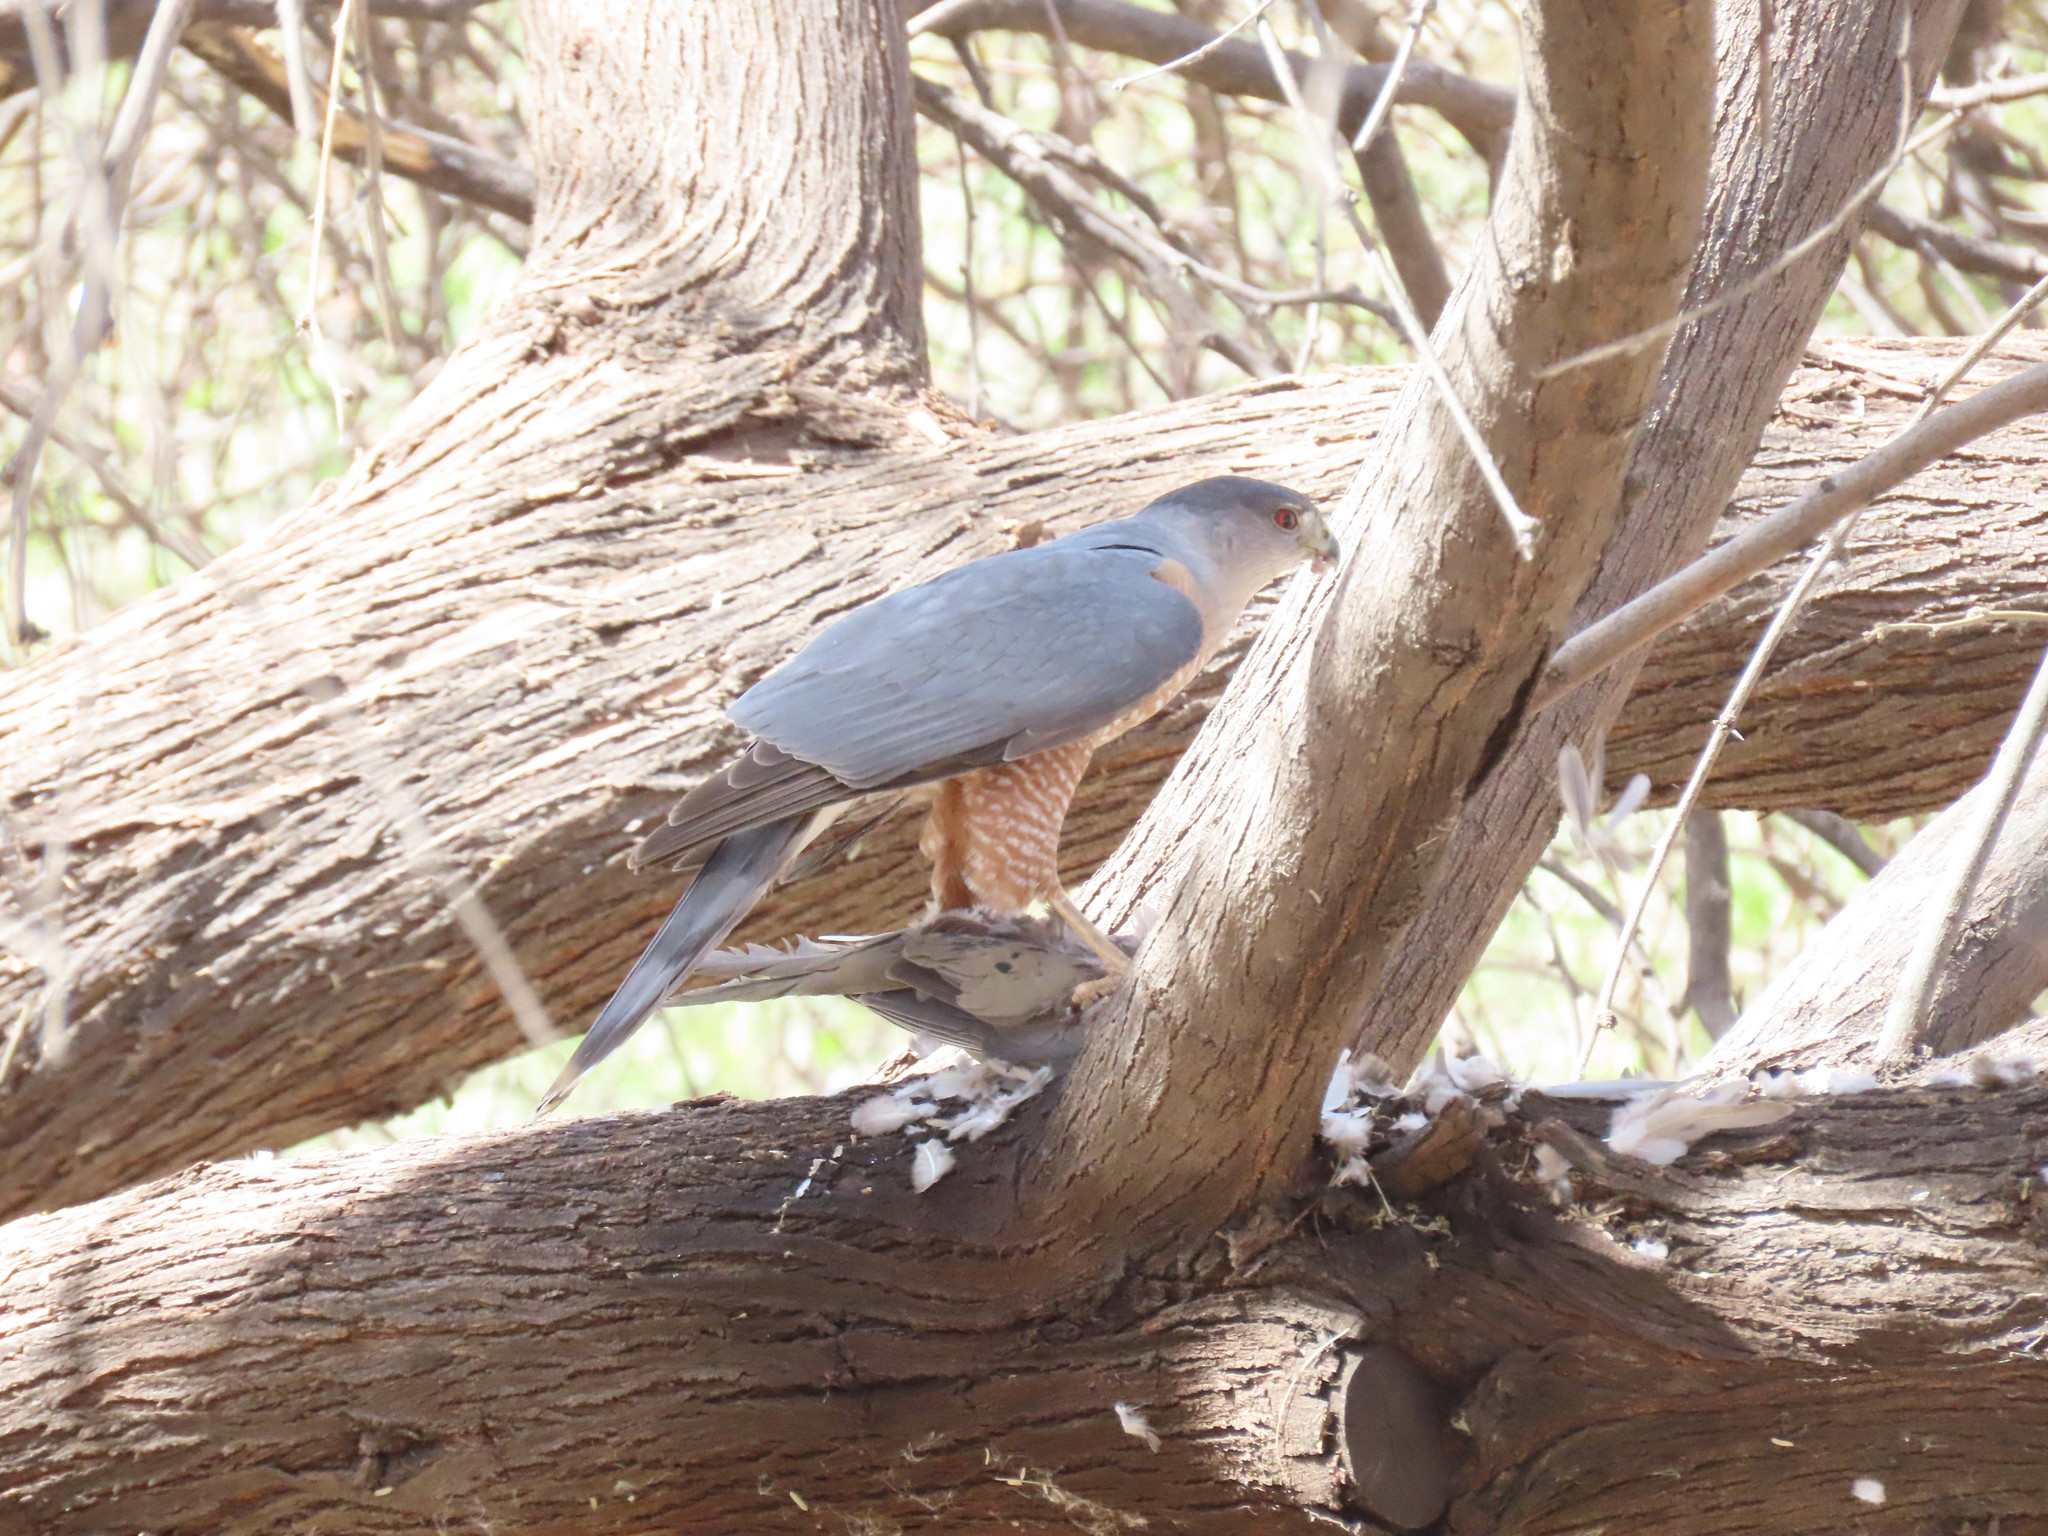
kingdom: Animalia
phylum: Chordata
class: Aves
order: Columbiformes
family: Columbidae
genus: Zenaida
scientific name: Zenaida macroura
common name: Mourning dove
